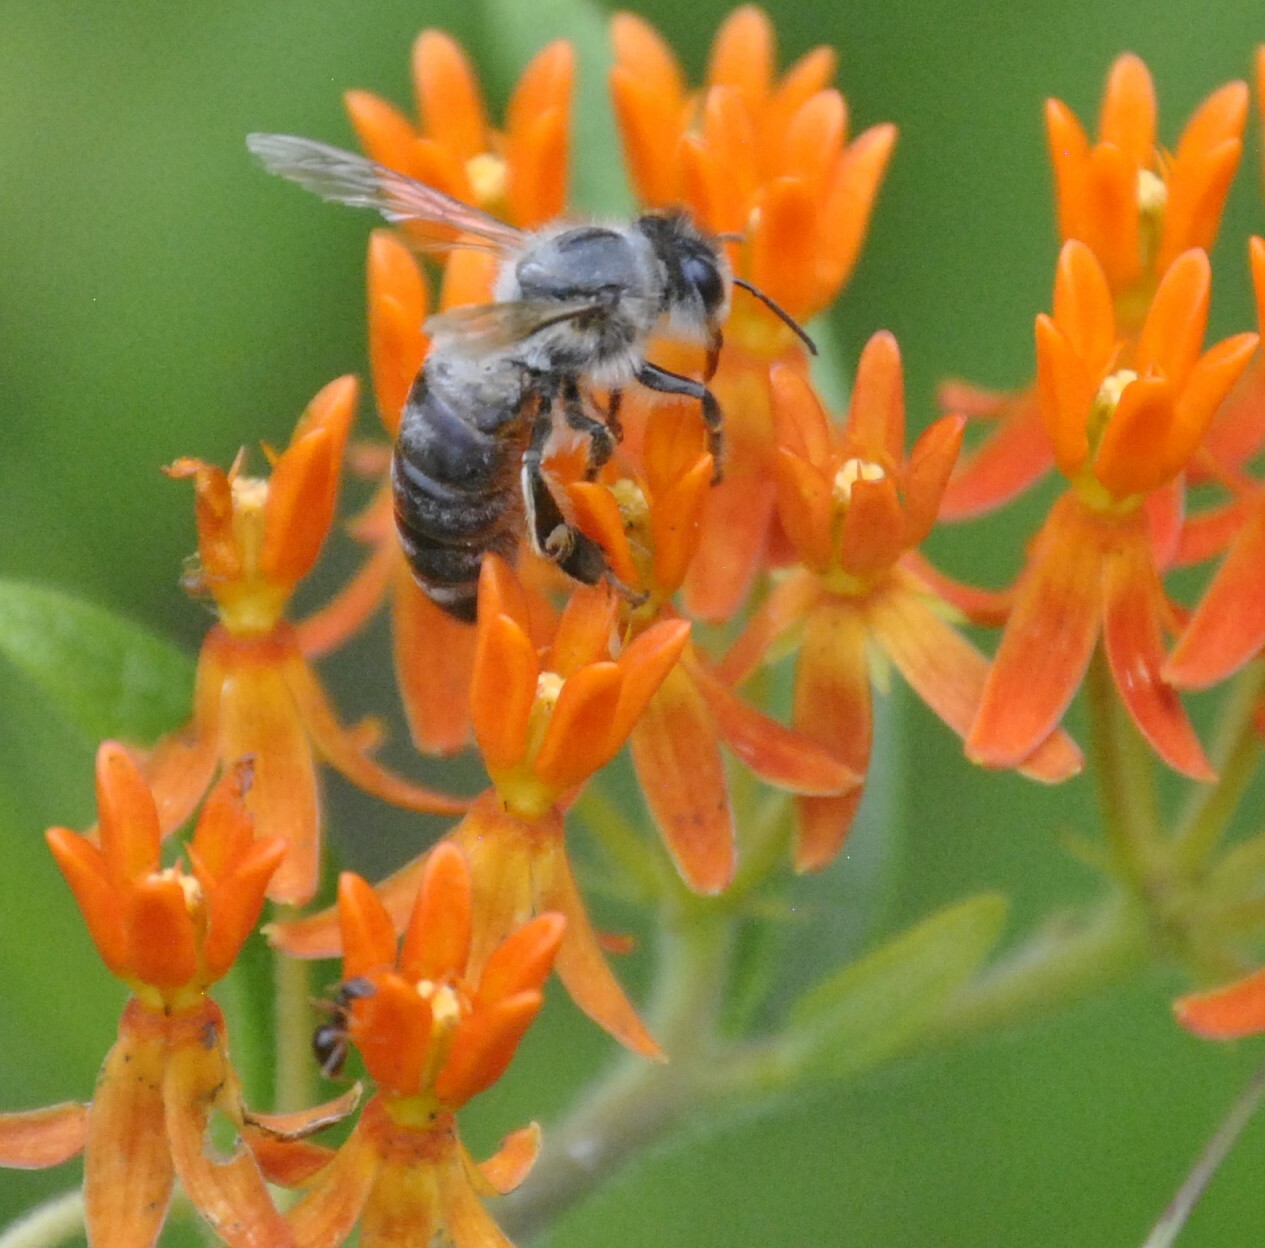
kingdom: Plantae
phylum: Tracheophyta
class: Magnoliopsida
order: Gentianales
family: Apocynaceae
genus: Asclepias
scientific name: Asclepias tuberosa
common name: Butterfly milkweed
